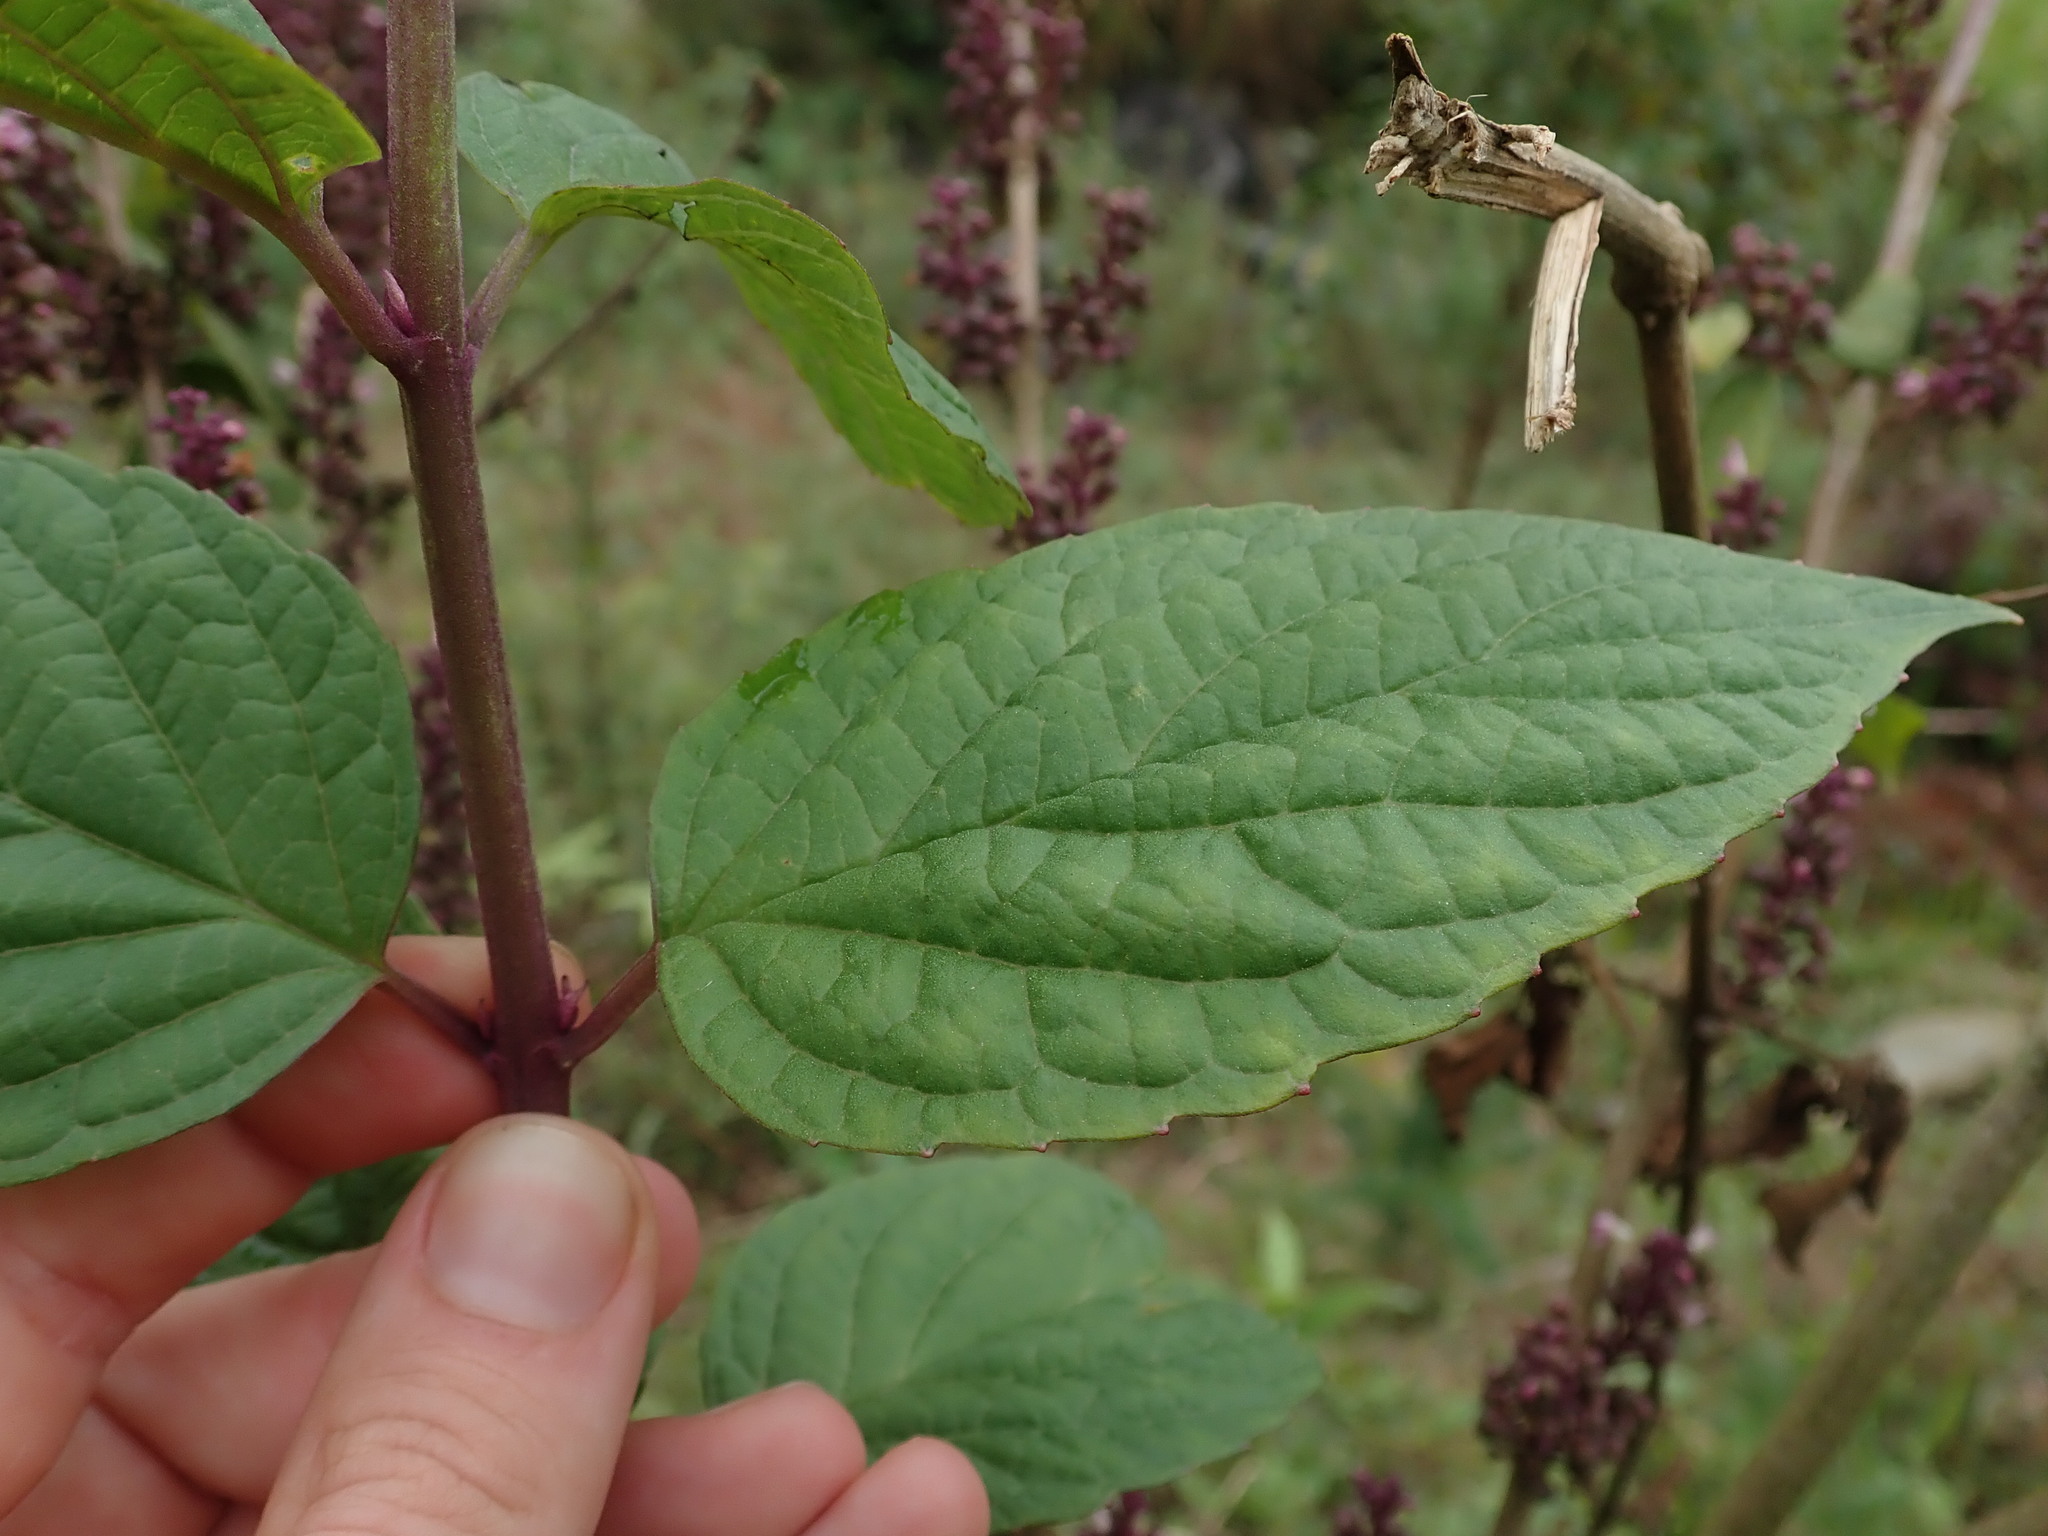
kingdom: Plantae
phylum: Tracheophyta
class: Magnoliopsida
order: Lamiales
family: Lamiaceae
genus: Pseudocaryopteris
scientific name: Pseudocaryopteris foetida
